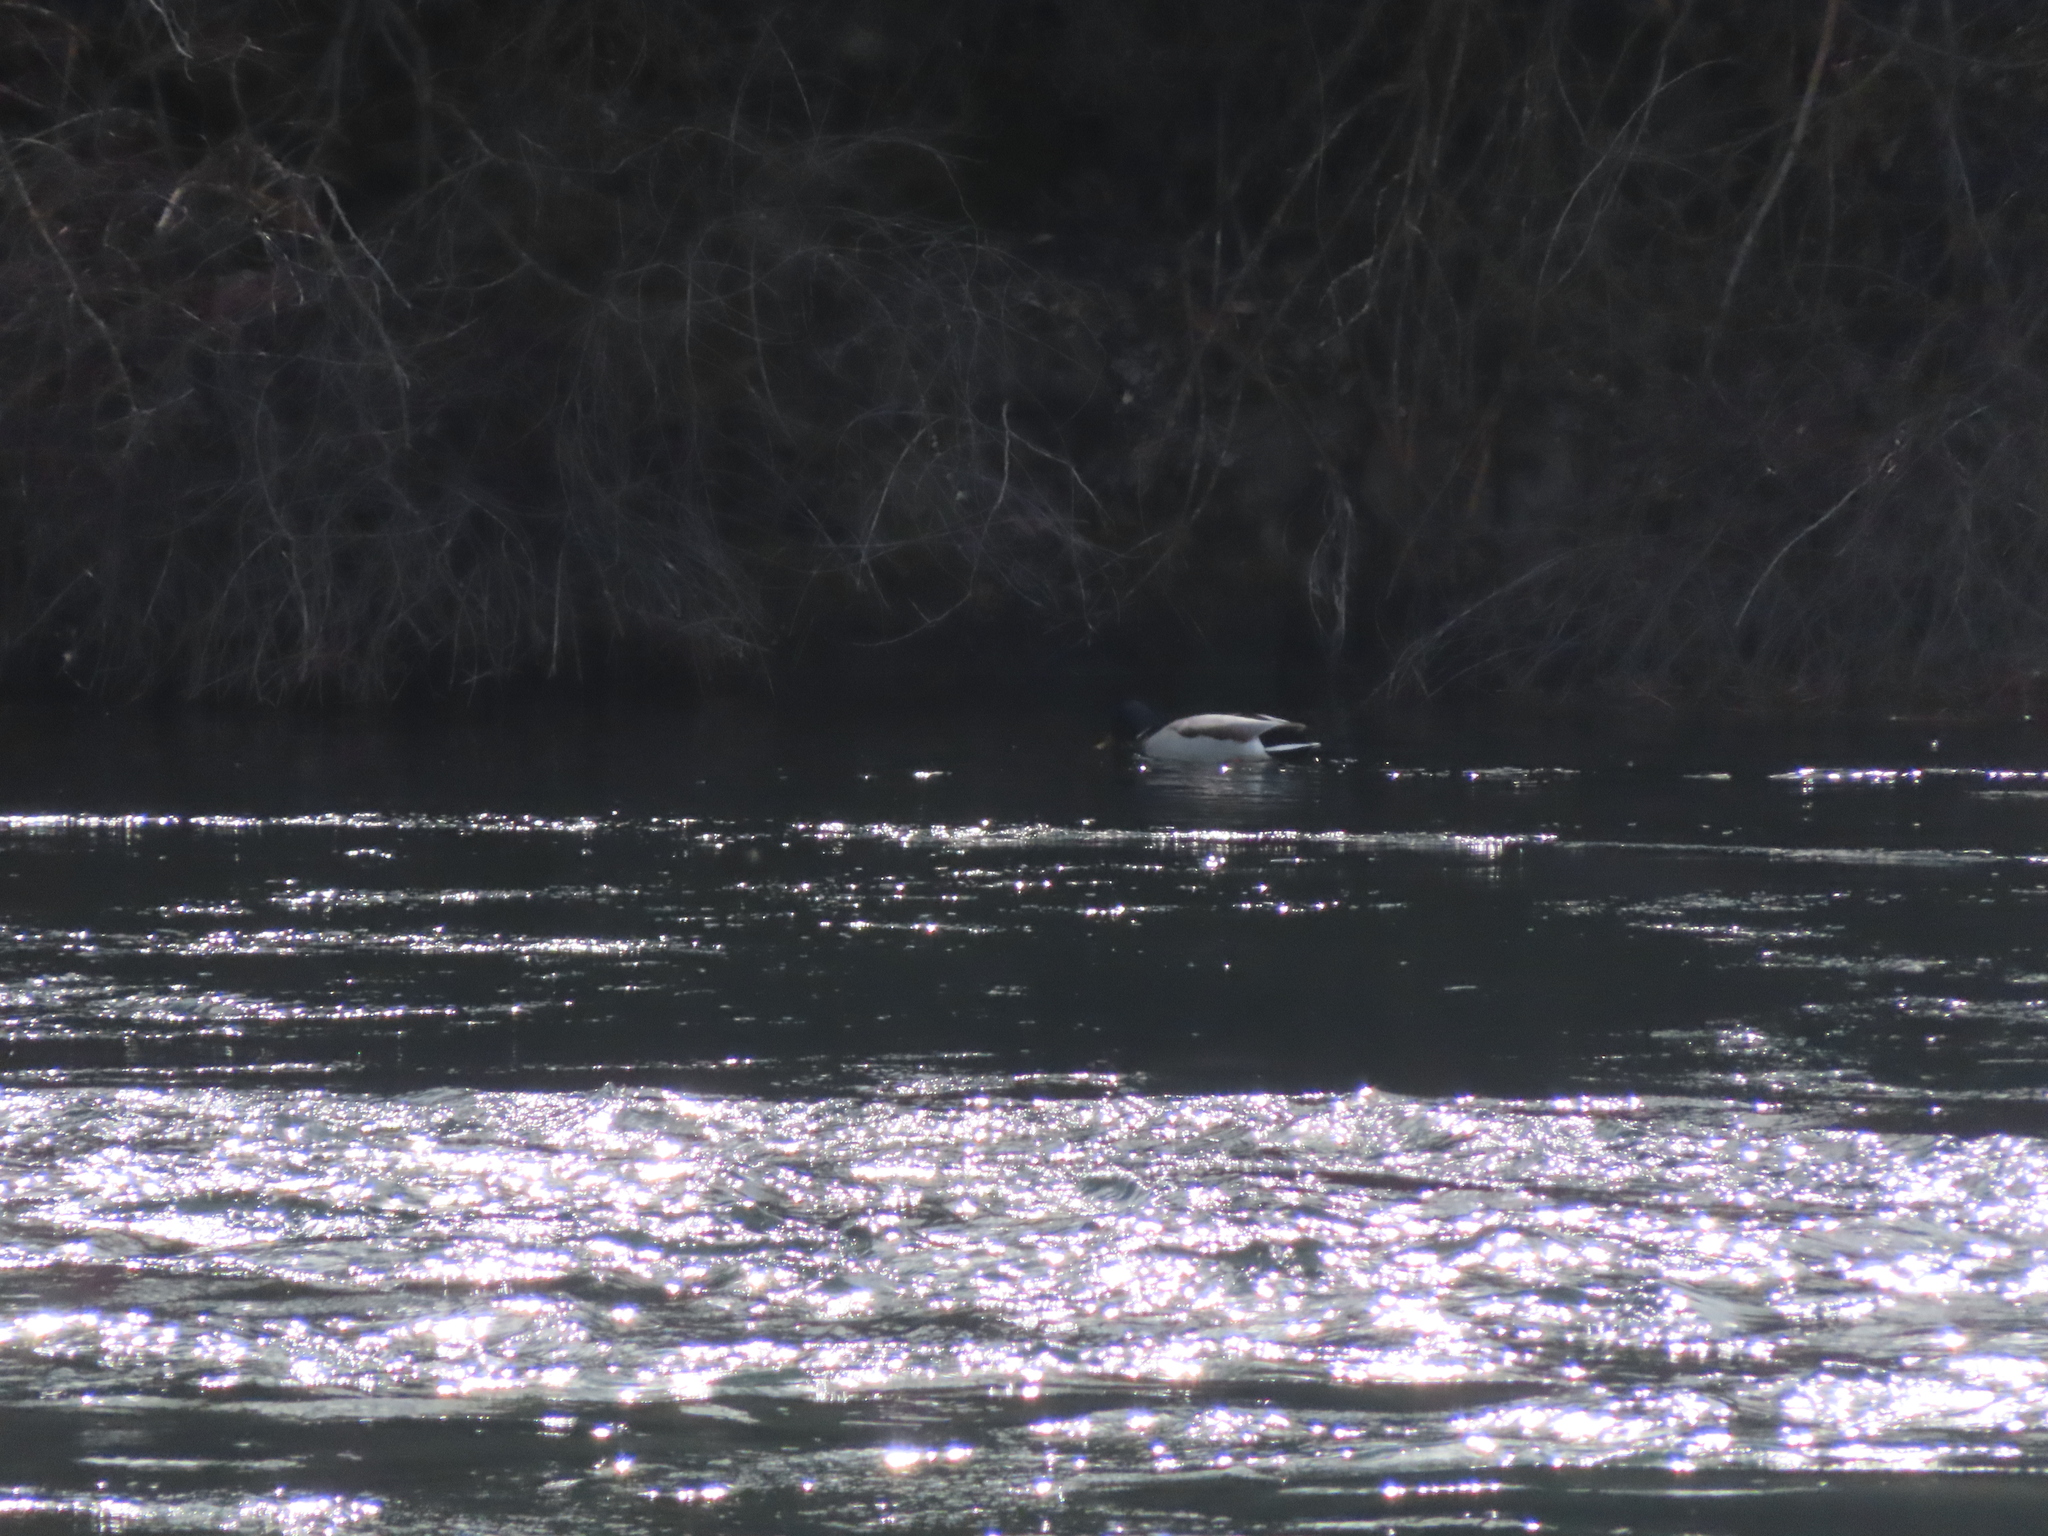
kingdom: Animalia
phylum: Chordata
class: Aves
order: Anseriformes
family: Anatidae
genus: Anas
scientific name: Anas platyrhynchos
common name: Mallard
